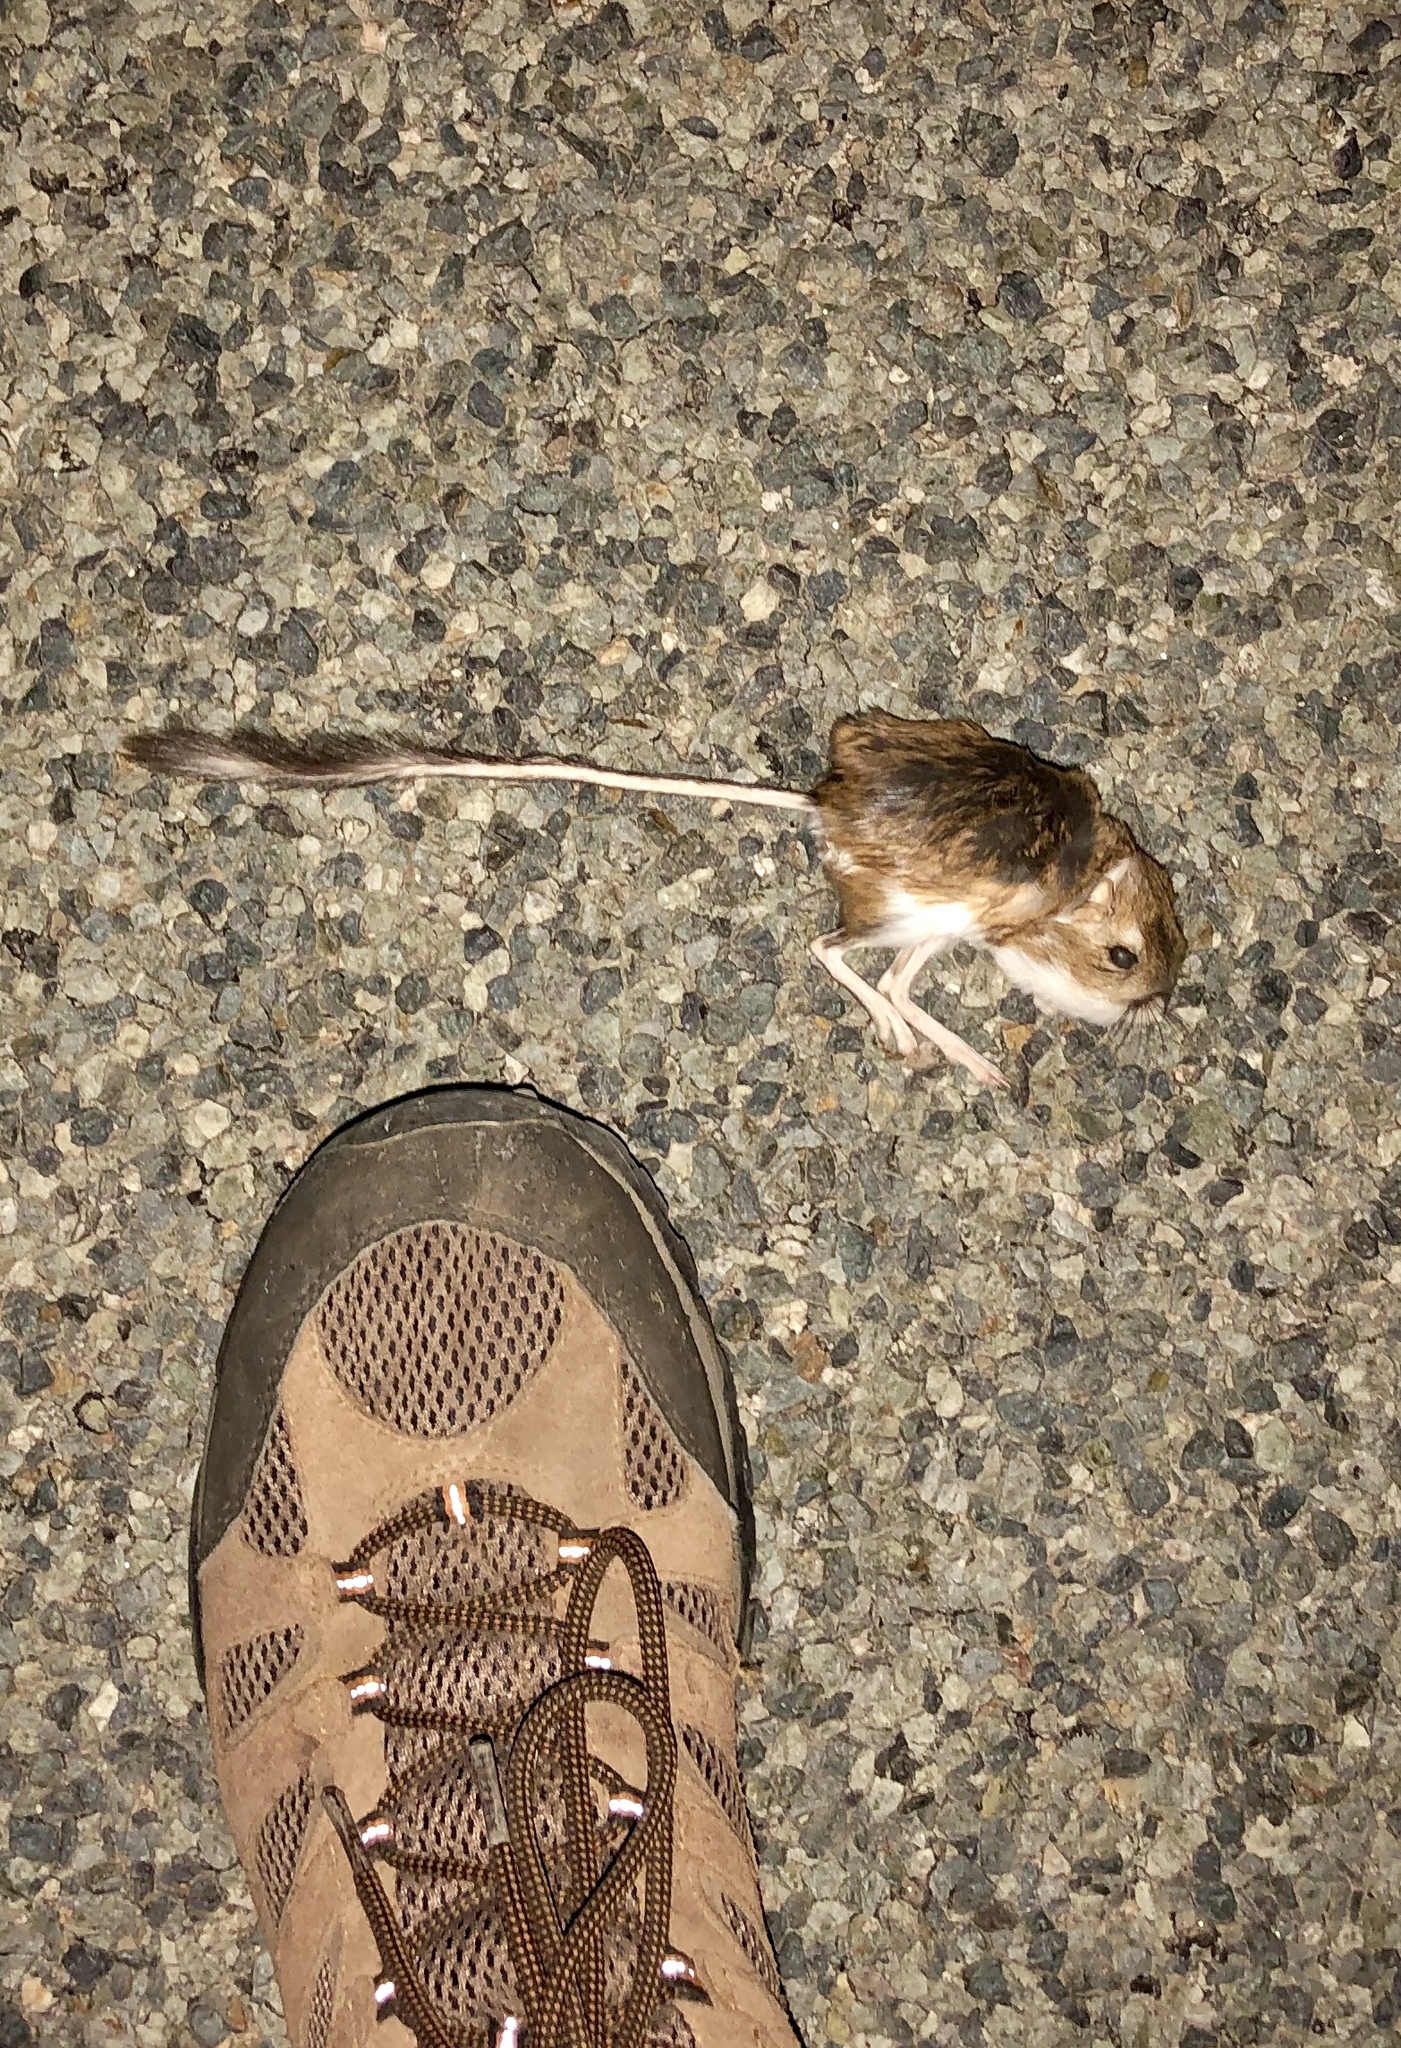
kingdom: Animalia
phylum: Chordata
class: Mammalia
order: Rodentia
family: Heteromyidae
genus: Dipodomys
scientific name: Dipodomys ordii
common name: Ord's kangaroo rat
